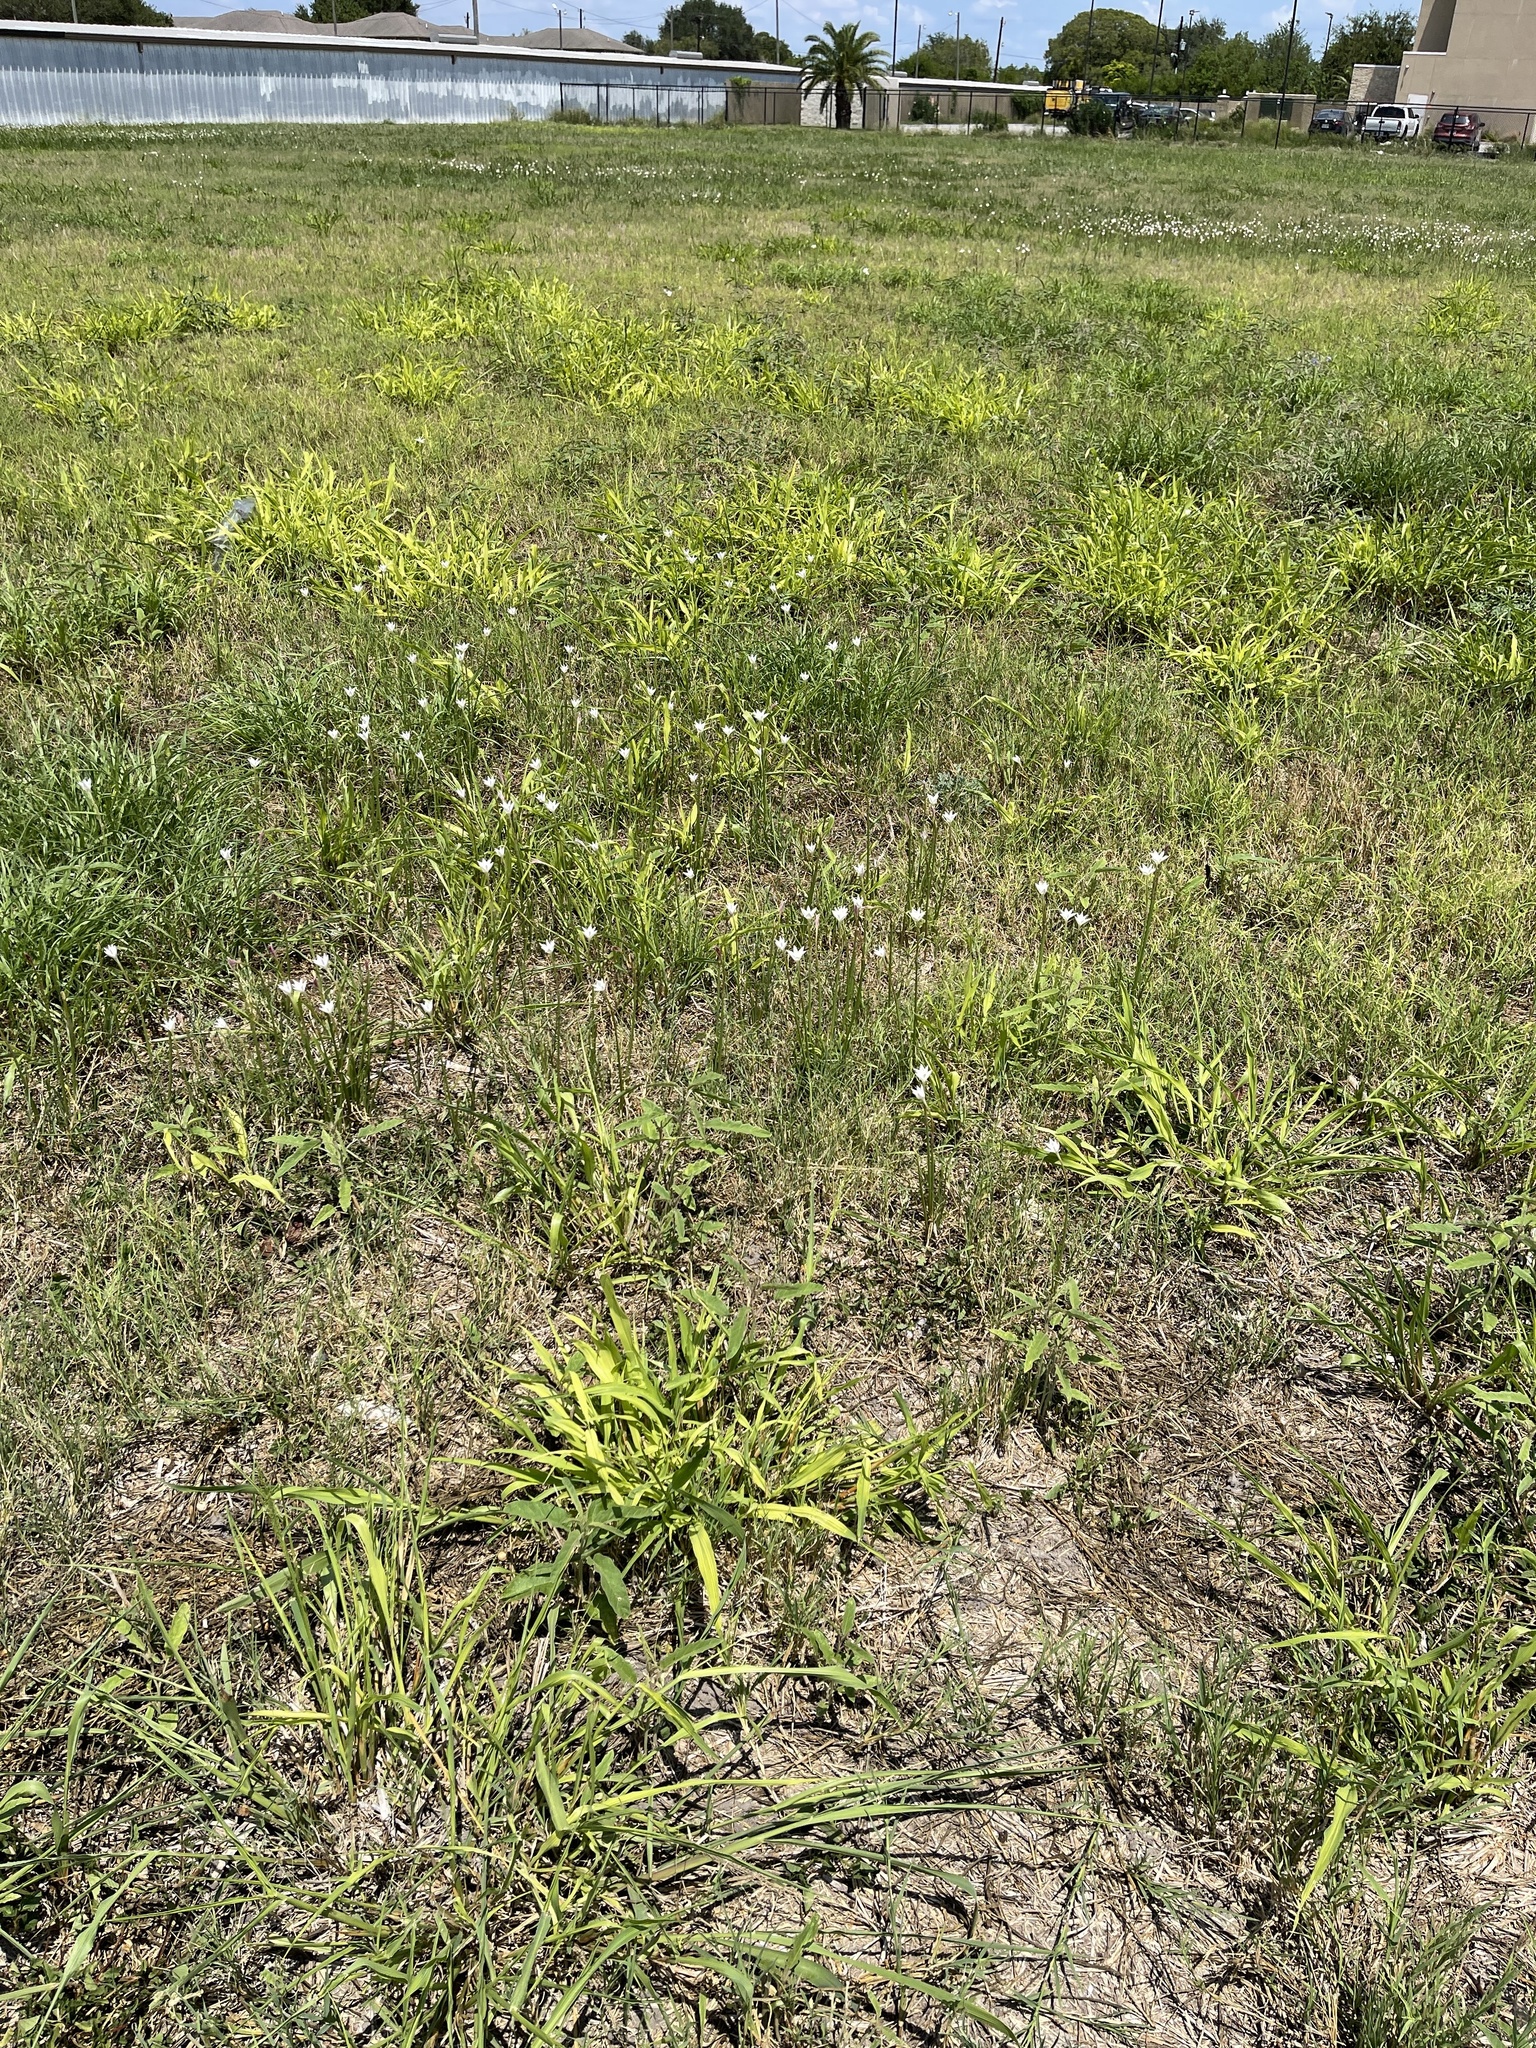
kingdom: Plantae
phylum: Tracheophyta
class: Liliopsida
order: Asparagales
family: Amaryllidaceae
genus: Zephyranthes
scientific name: Zephyranthes chlorosolen
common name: Evening rain-lily
